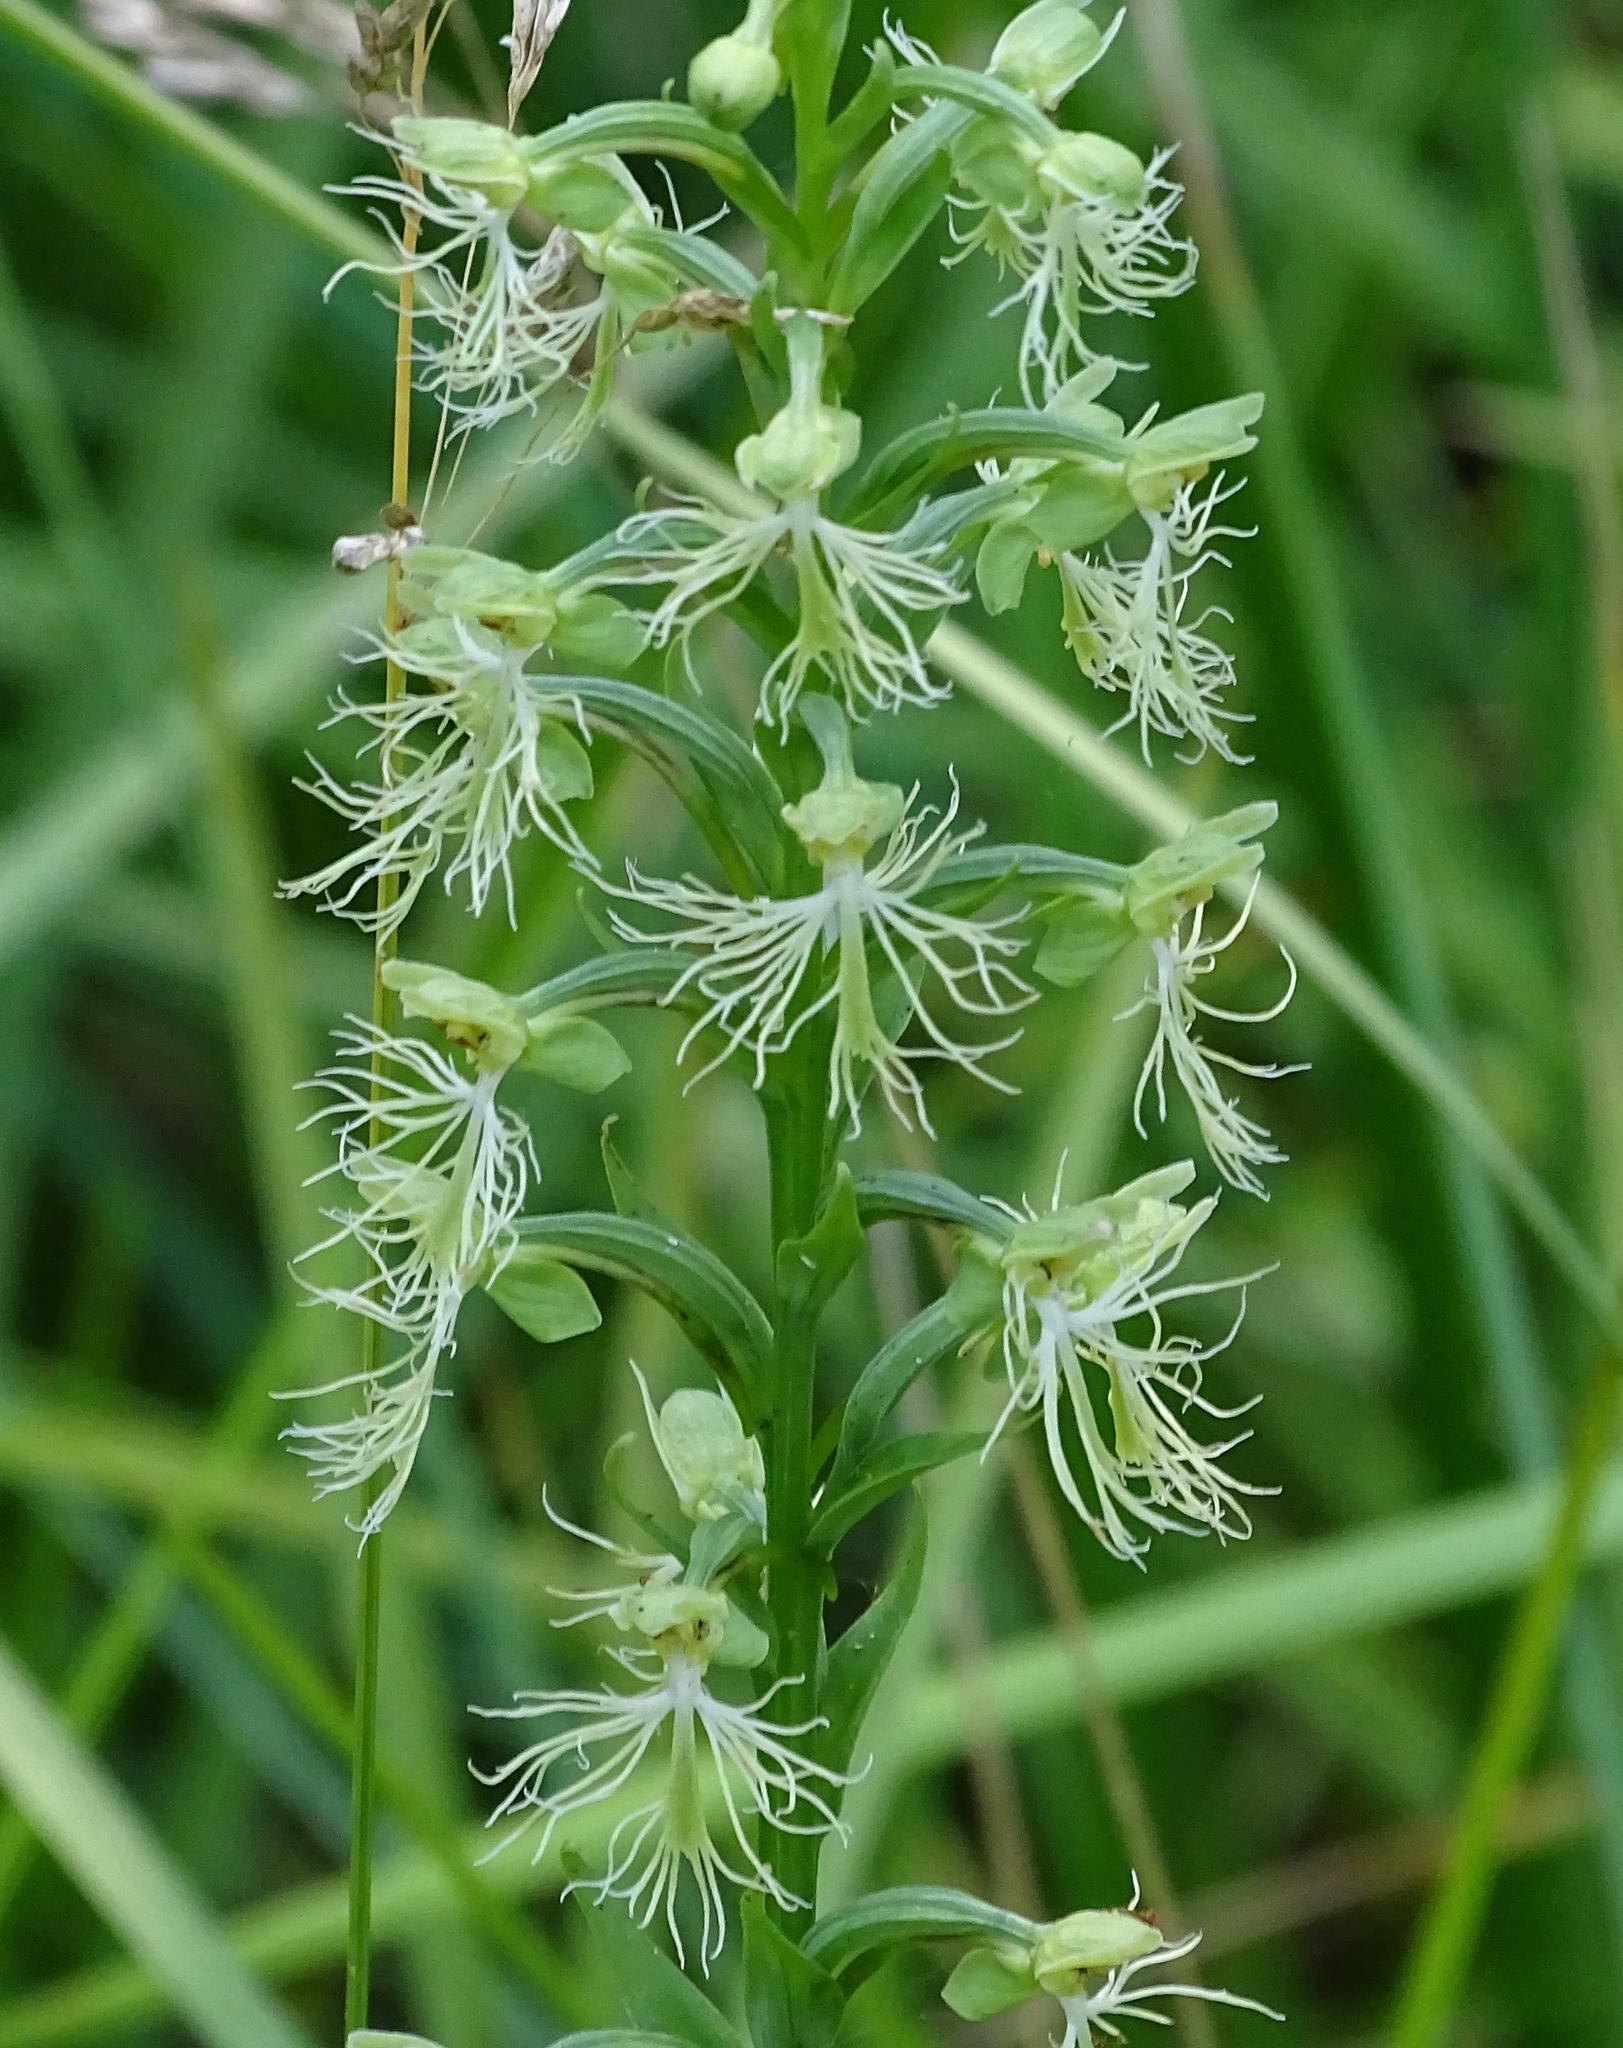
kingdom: Plantae
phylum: Tracheophyta
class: Liliopsida
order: Asparagales
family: Orchidaceae
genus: Platanthera
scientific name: Platanthera lacera
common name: Green fringed orchid
